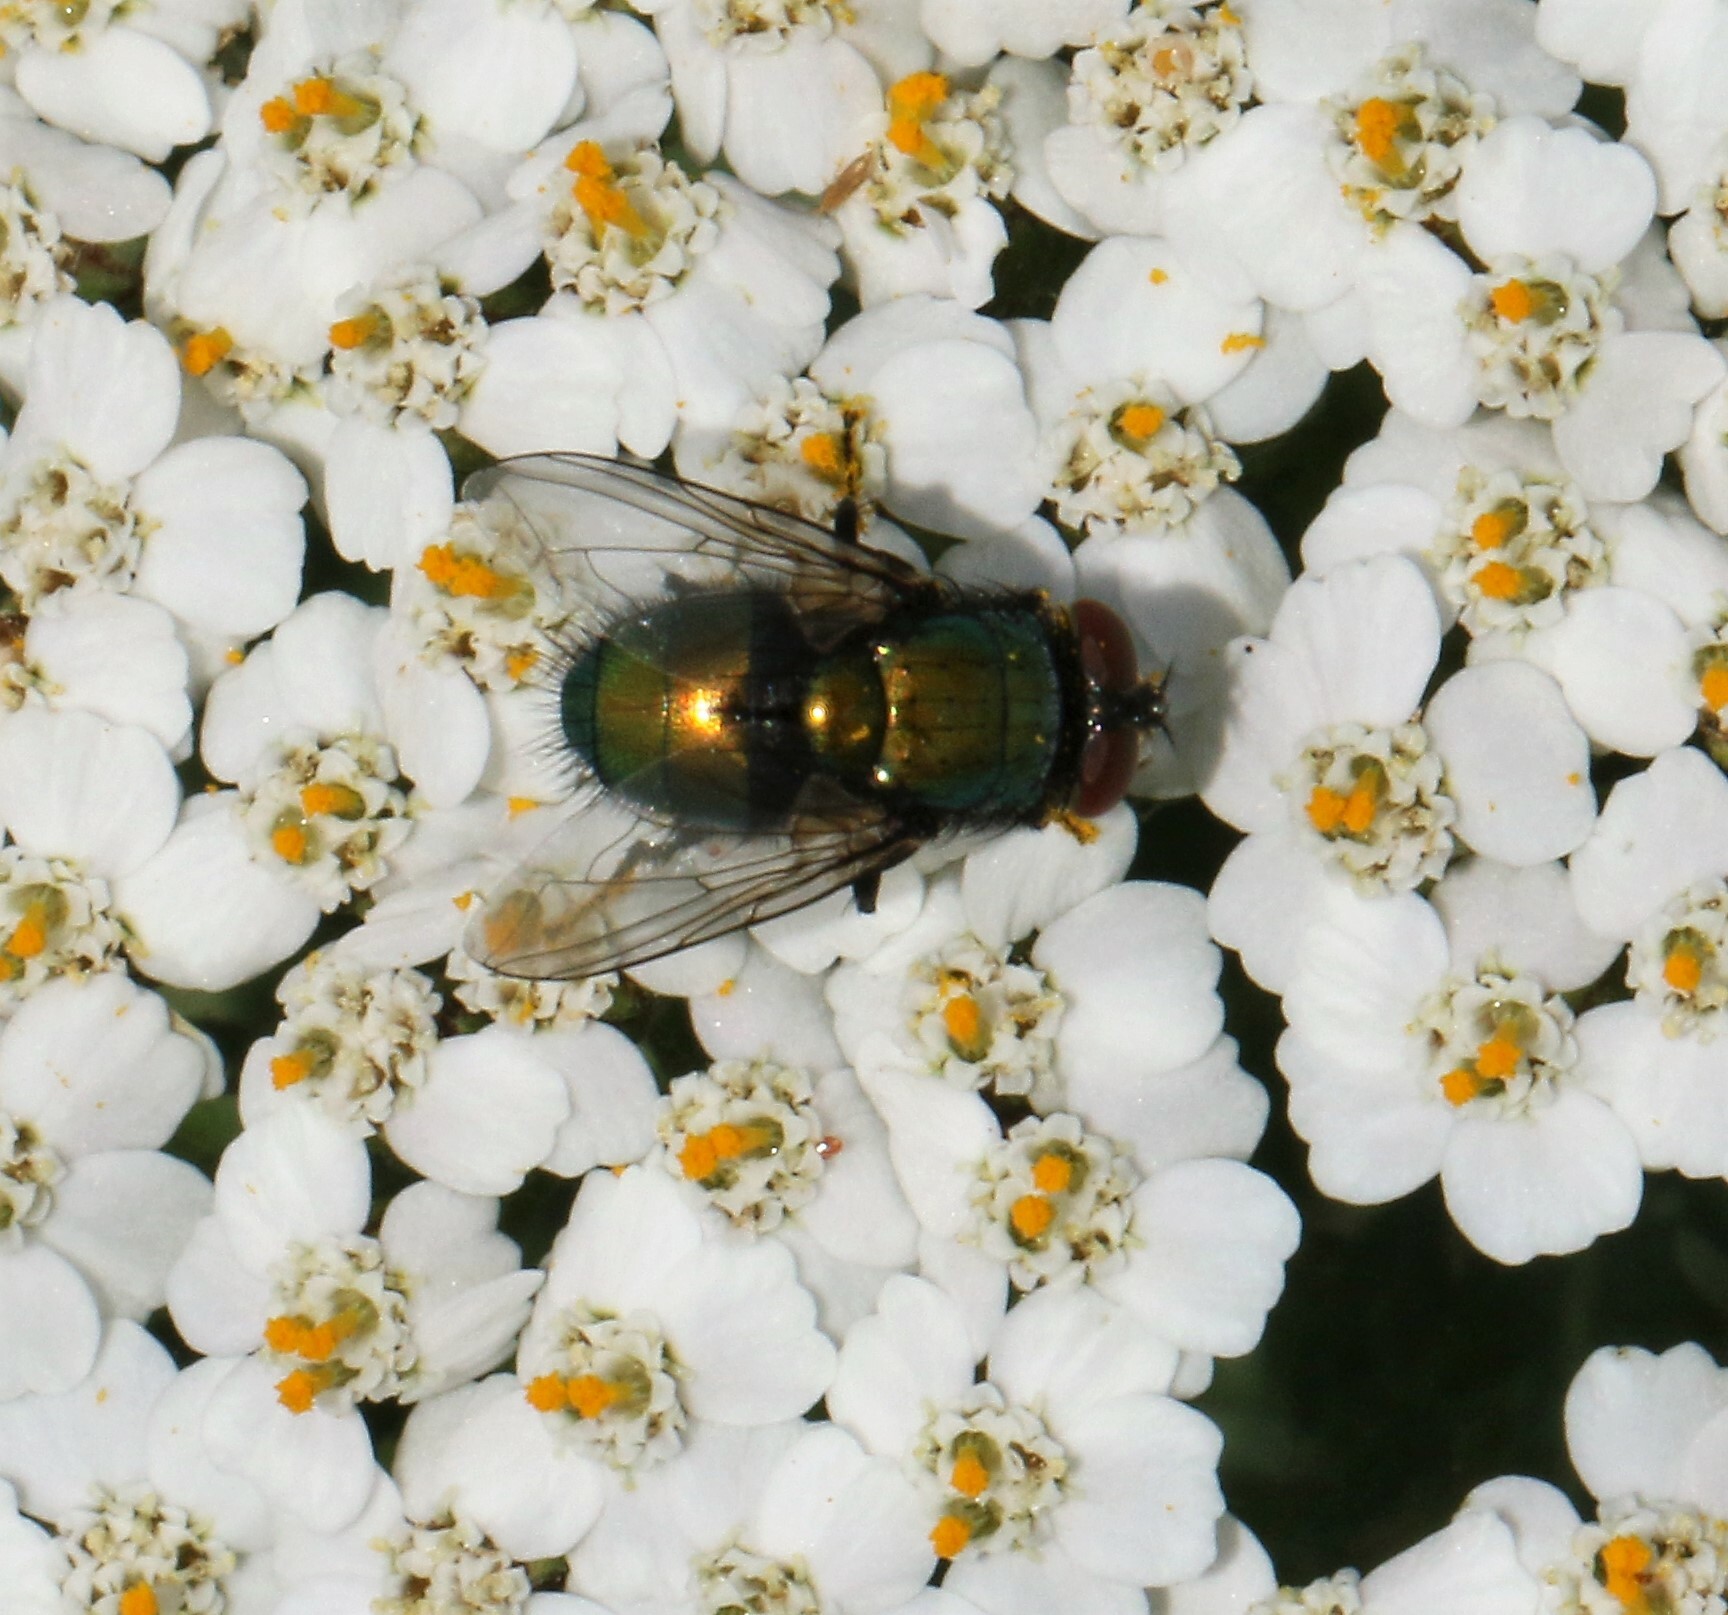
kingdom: Animalia
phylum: Arthropoda
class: Insecta
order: Diptera
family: Calliphoridae
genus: Lucilia
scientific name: Lucilia sericata
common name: Blow fly
